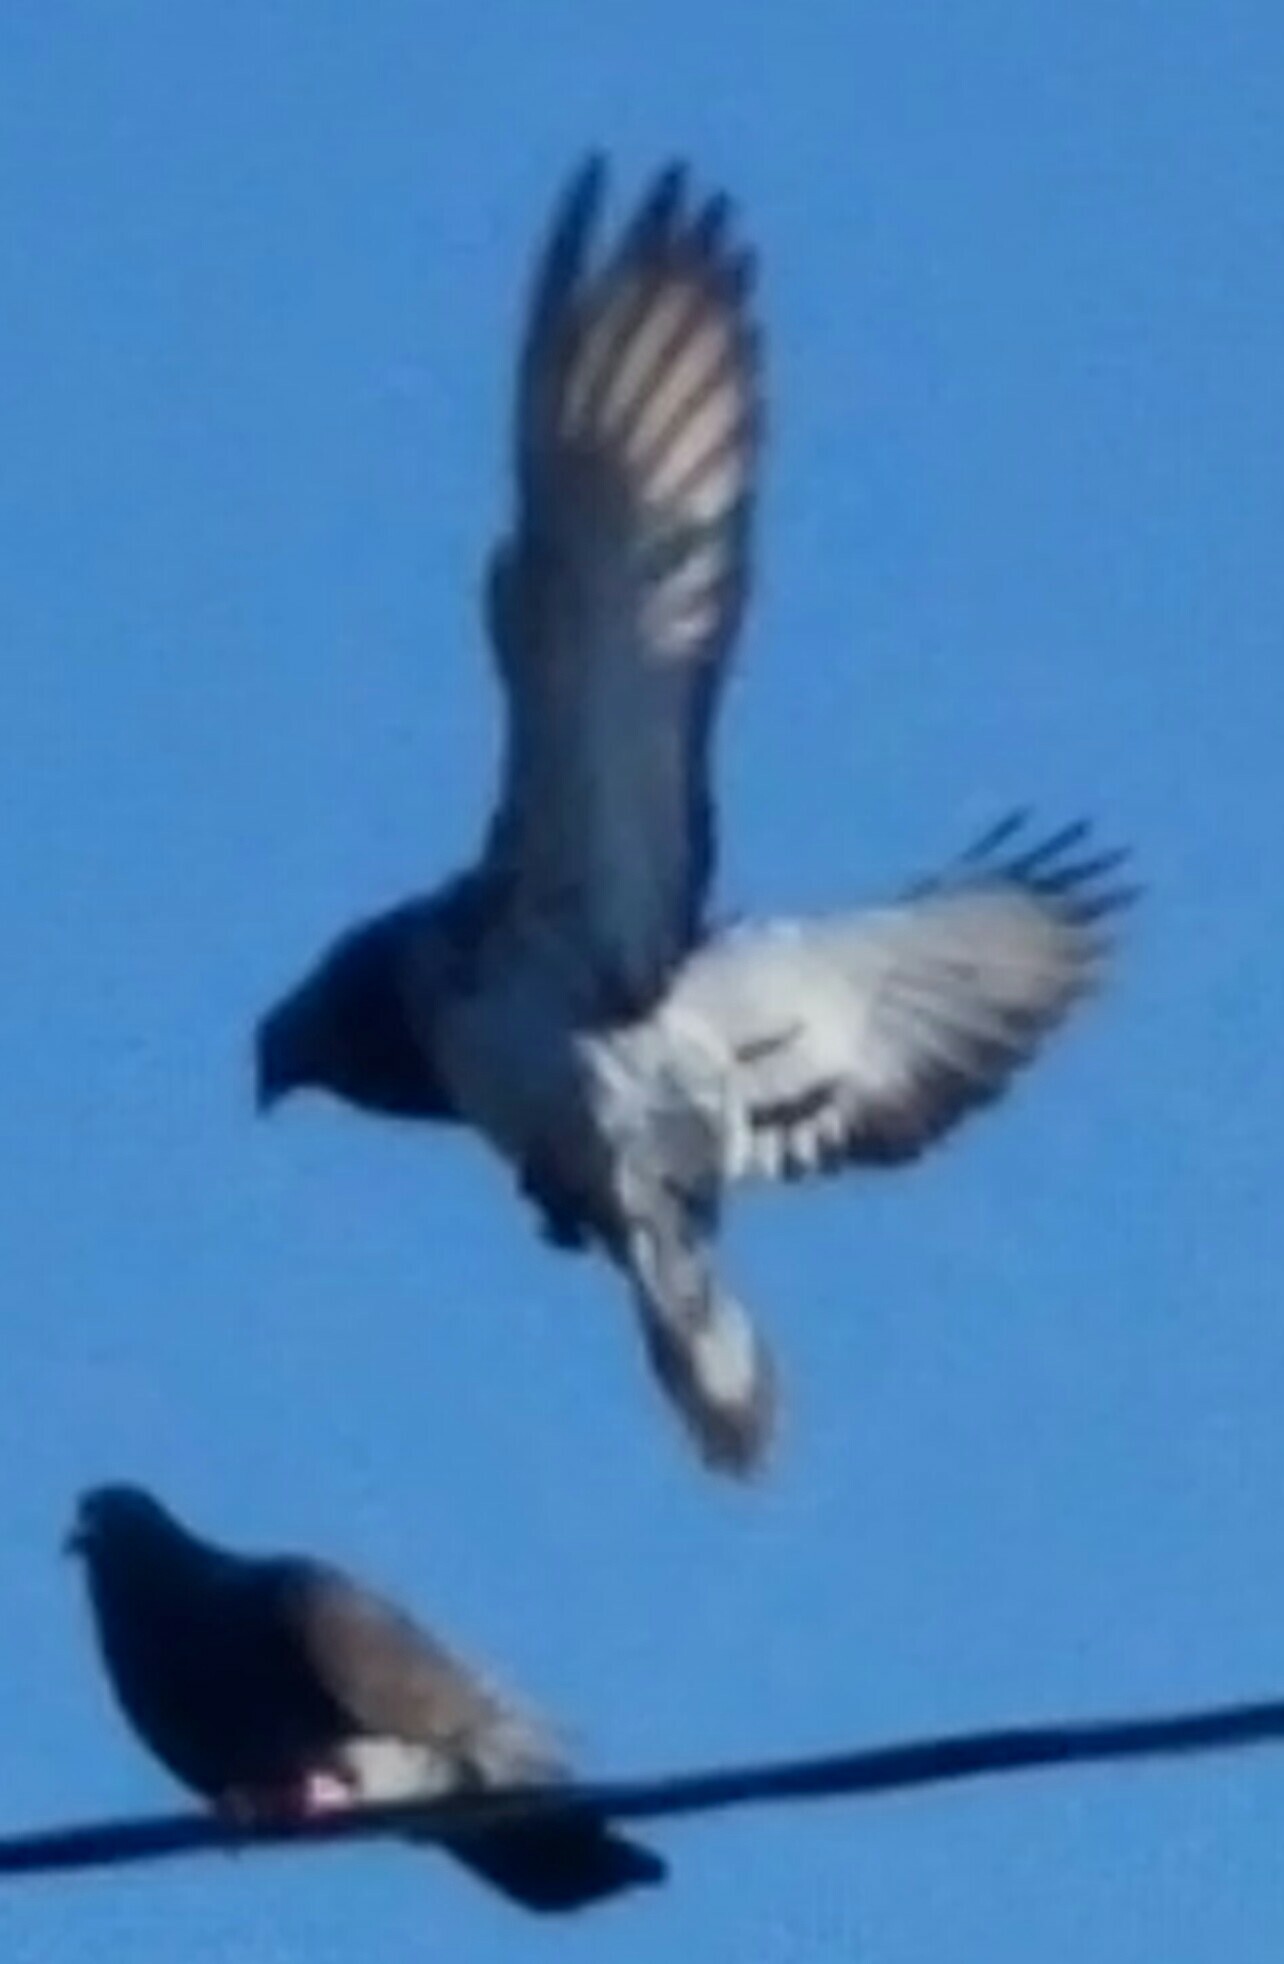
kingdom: Animalia
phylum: Chordata
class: Aves
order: Columbiformes
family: Columbidae
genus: Columba
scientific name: Columba livia
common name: Rock pigeon
